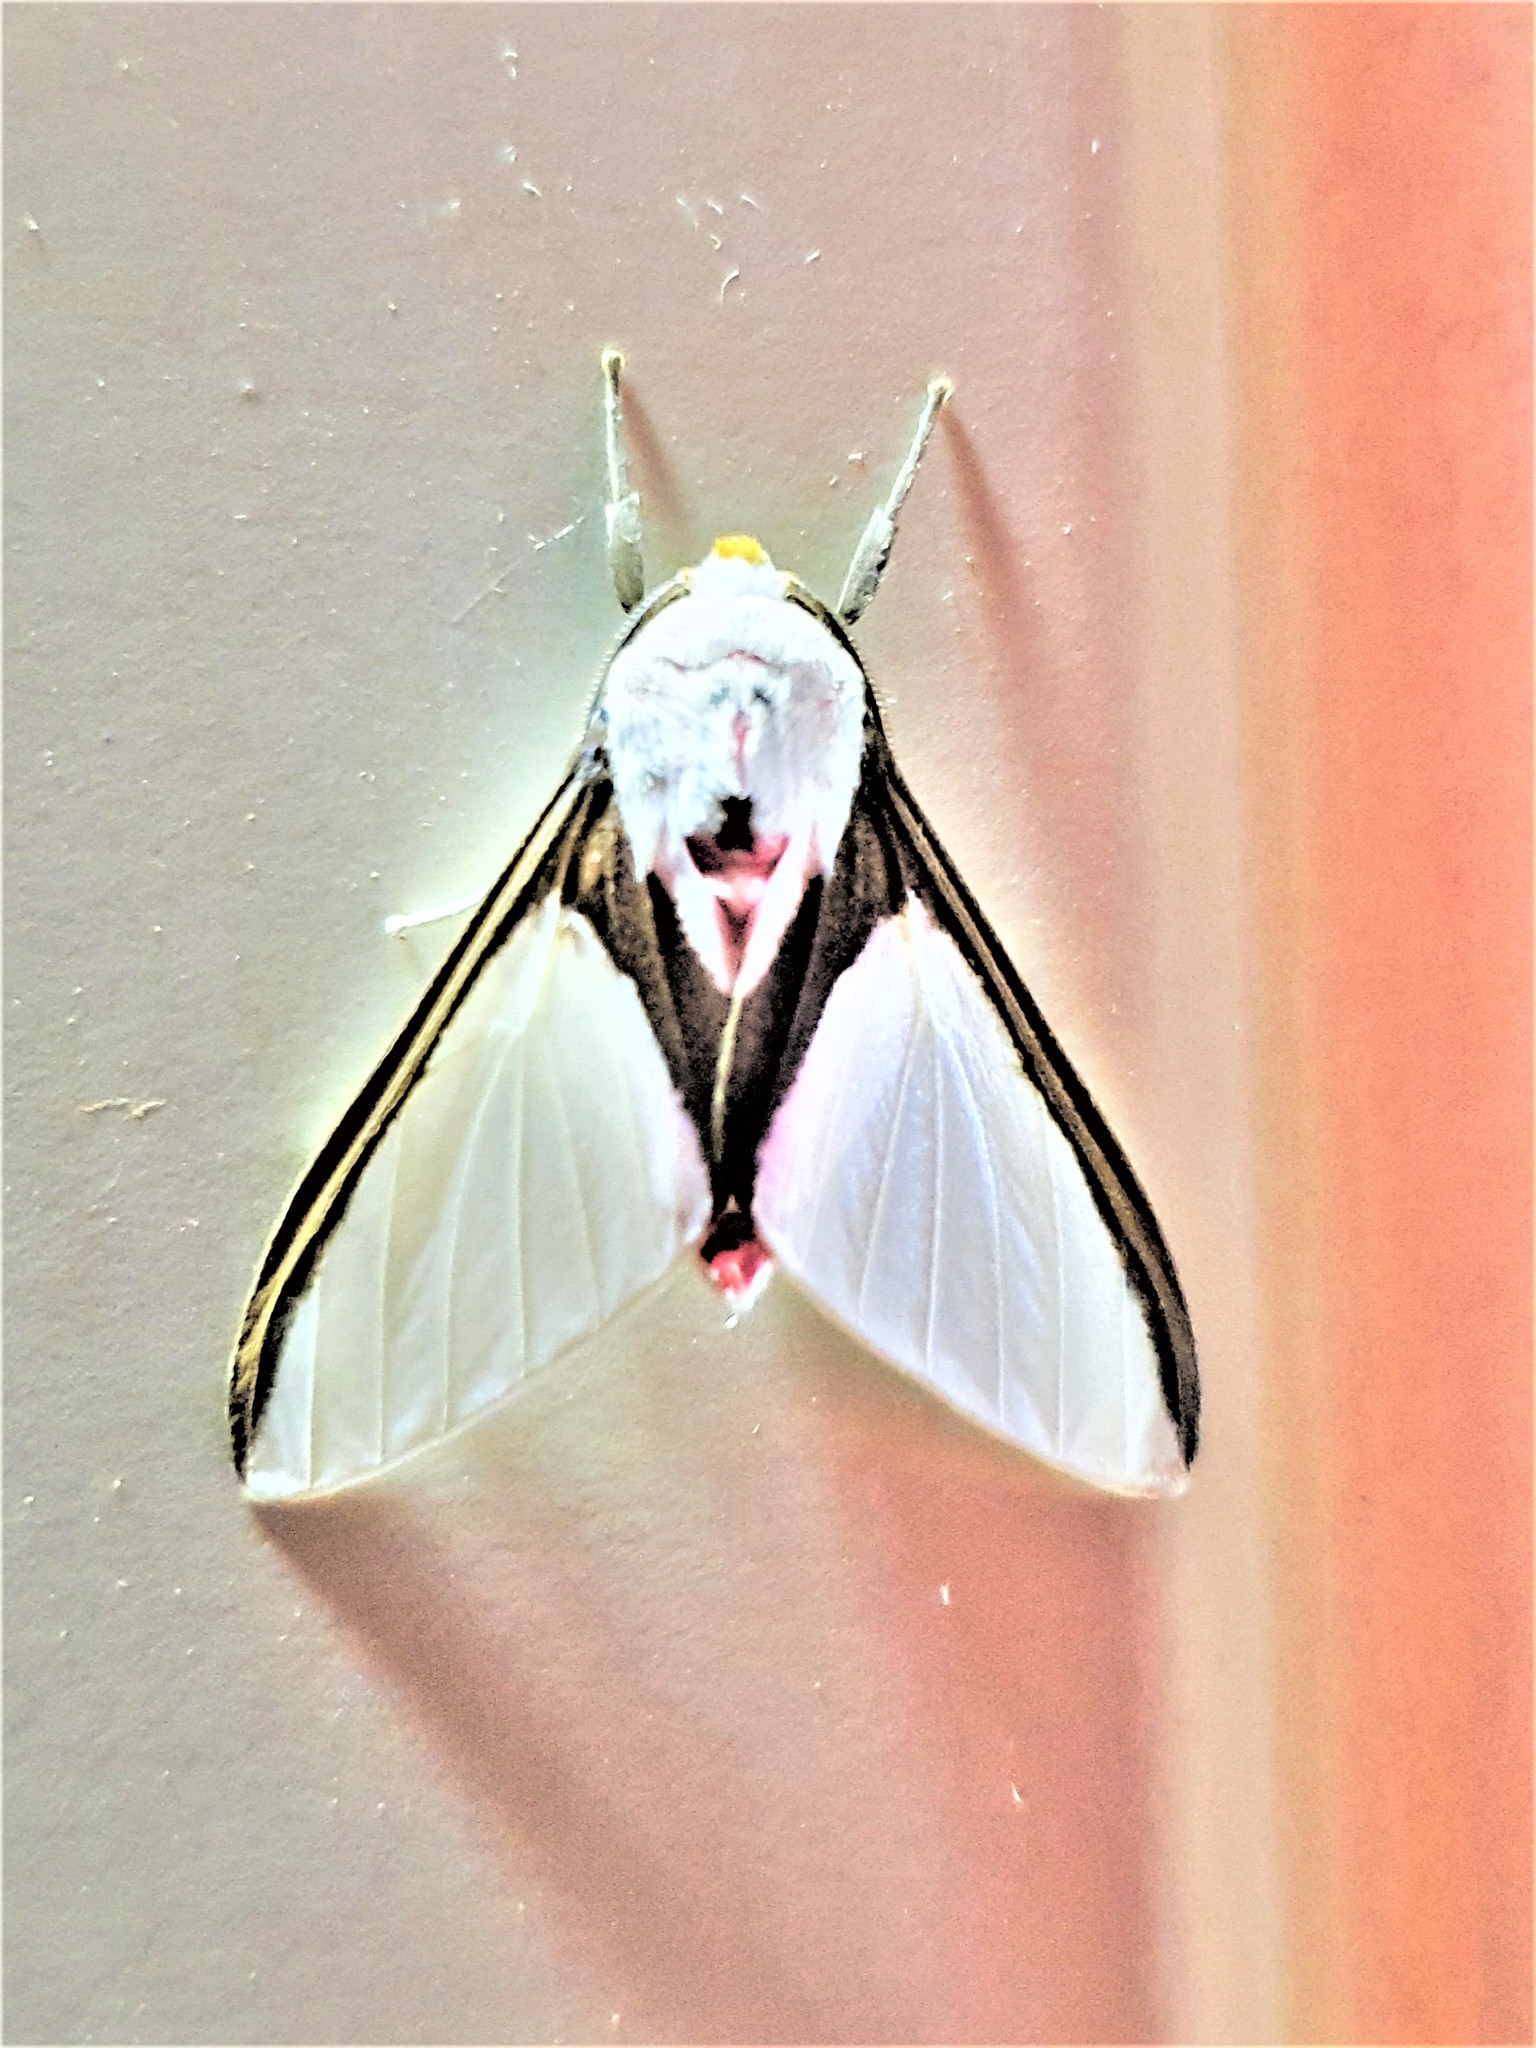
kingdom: Animalia
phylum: Arthropoda
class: Insecta
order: Lepidoptera
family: Erebidae
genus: Idalus
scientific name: Idalus larissa
